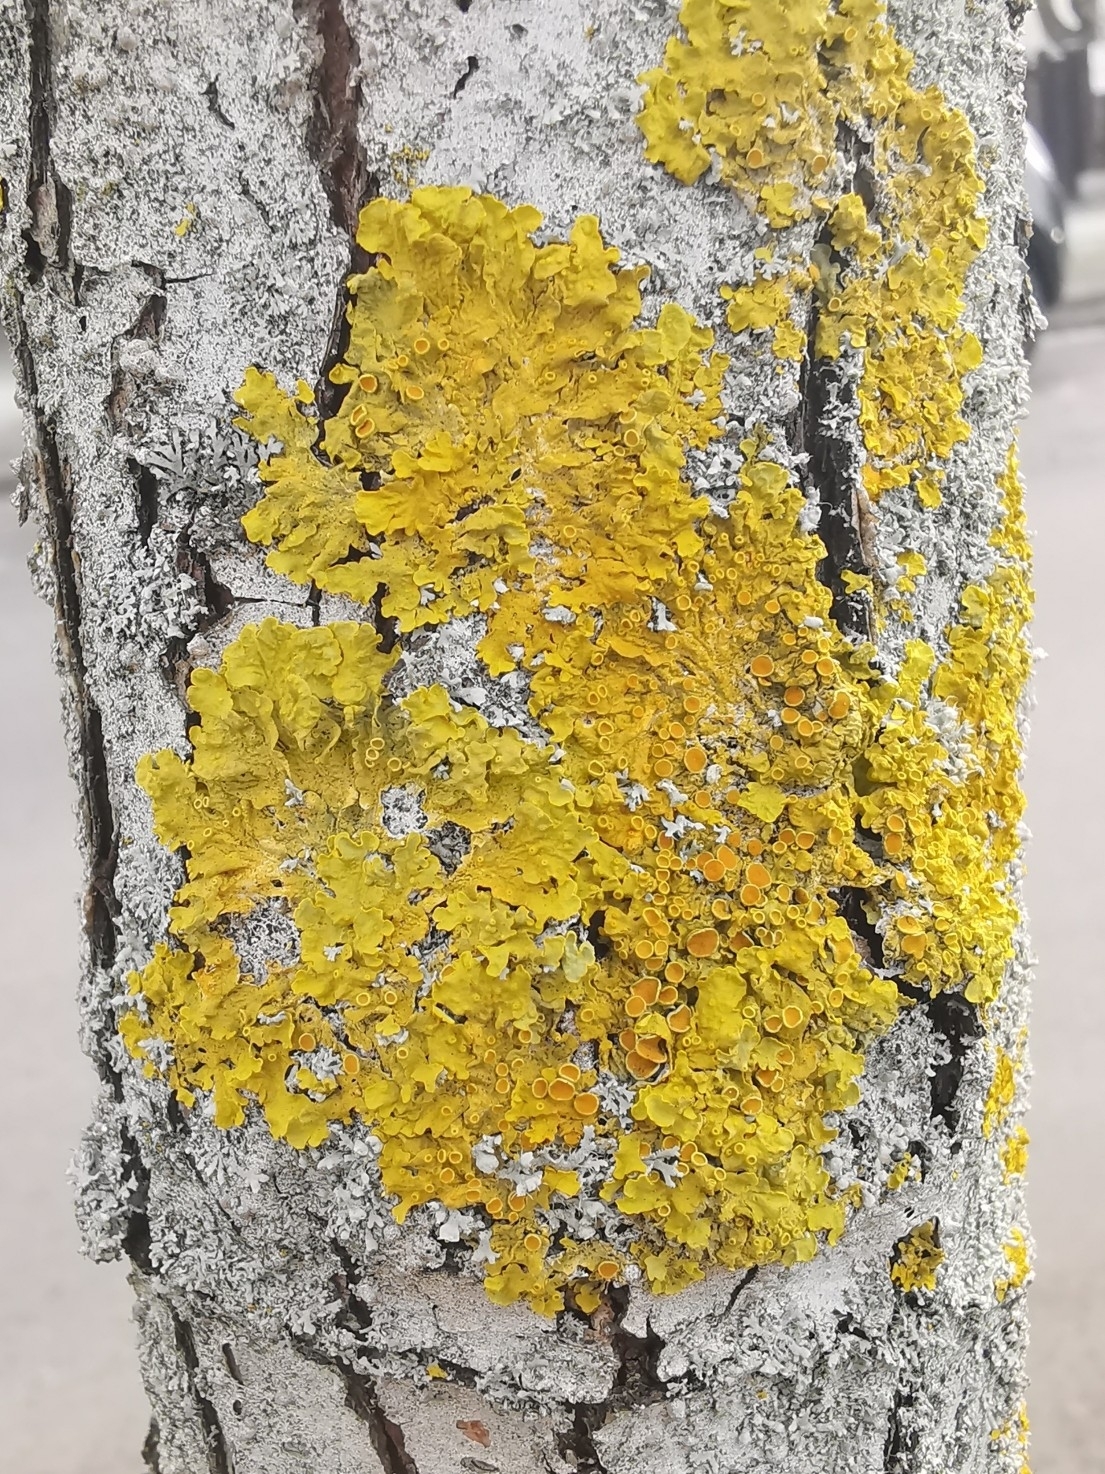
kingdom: Fungi
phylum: Ascomycota
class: Lecanoromycetes
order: Teloschistales
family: Teloschistaceae
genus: Xanthoria
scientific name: Xanthoria parietina
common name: Common orange lichen
